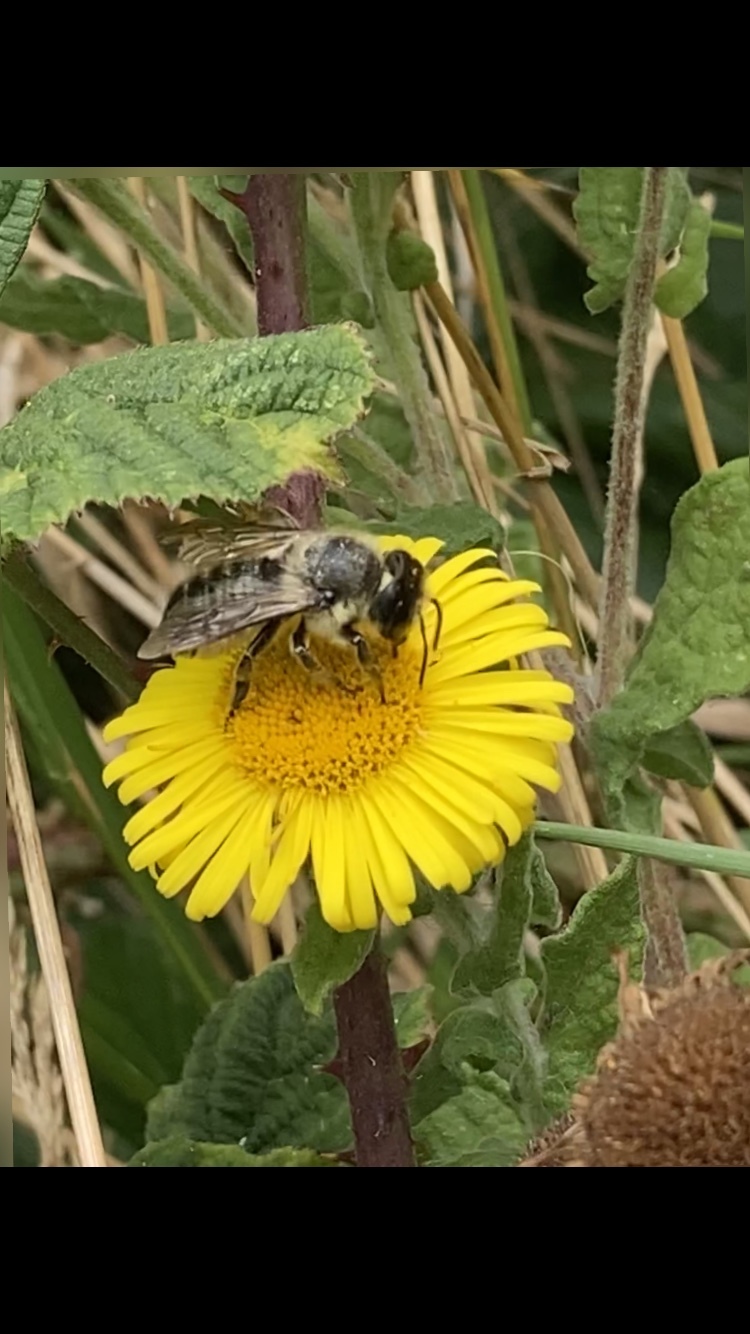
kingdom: Animalia
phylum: Arthropoda
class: Insecta
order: Hymenoptera
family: Megachilidae
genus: Megachile
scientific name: Megachile ligniseca
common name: Wood-carving leafcutter bee
